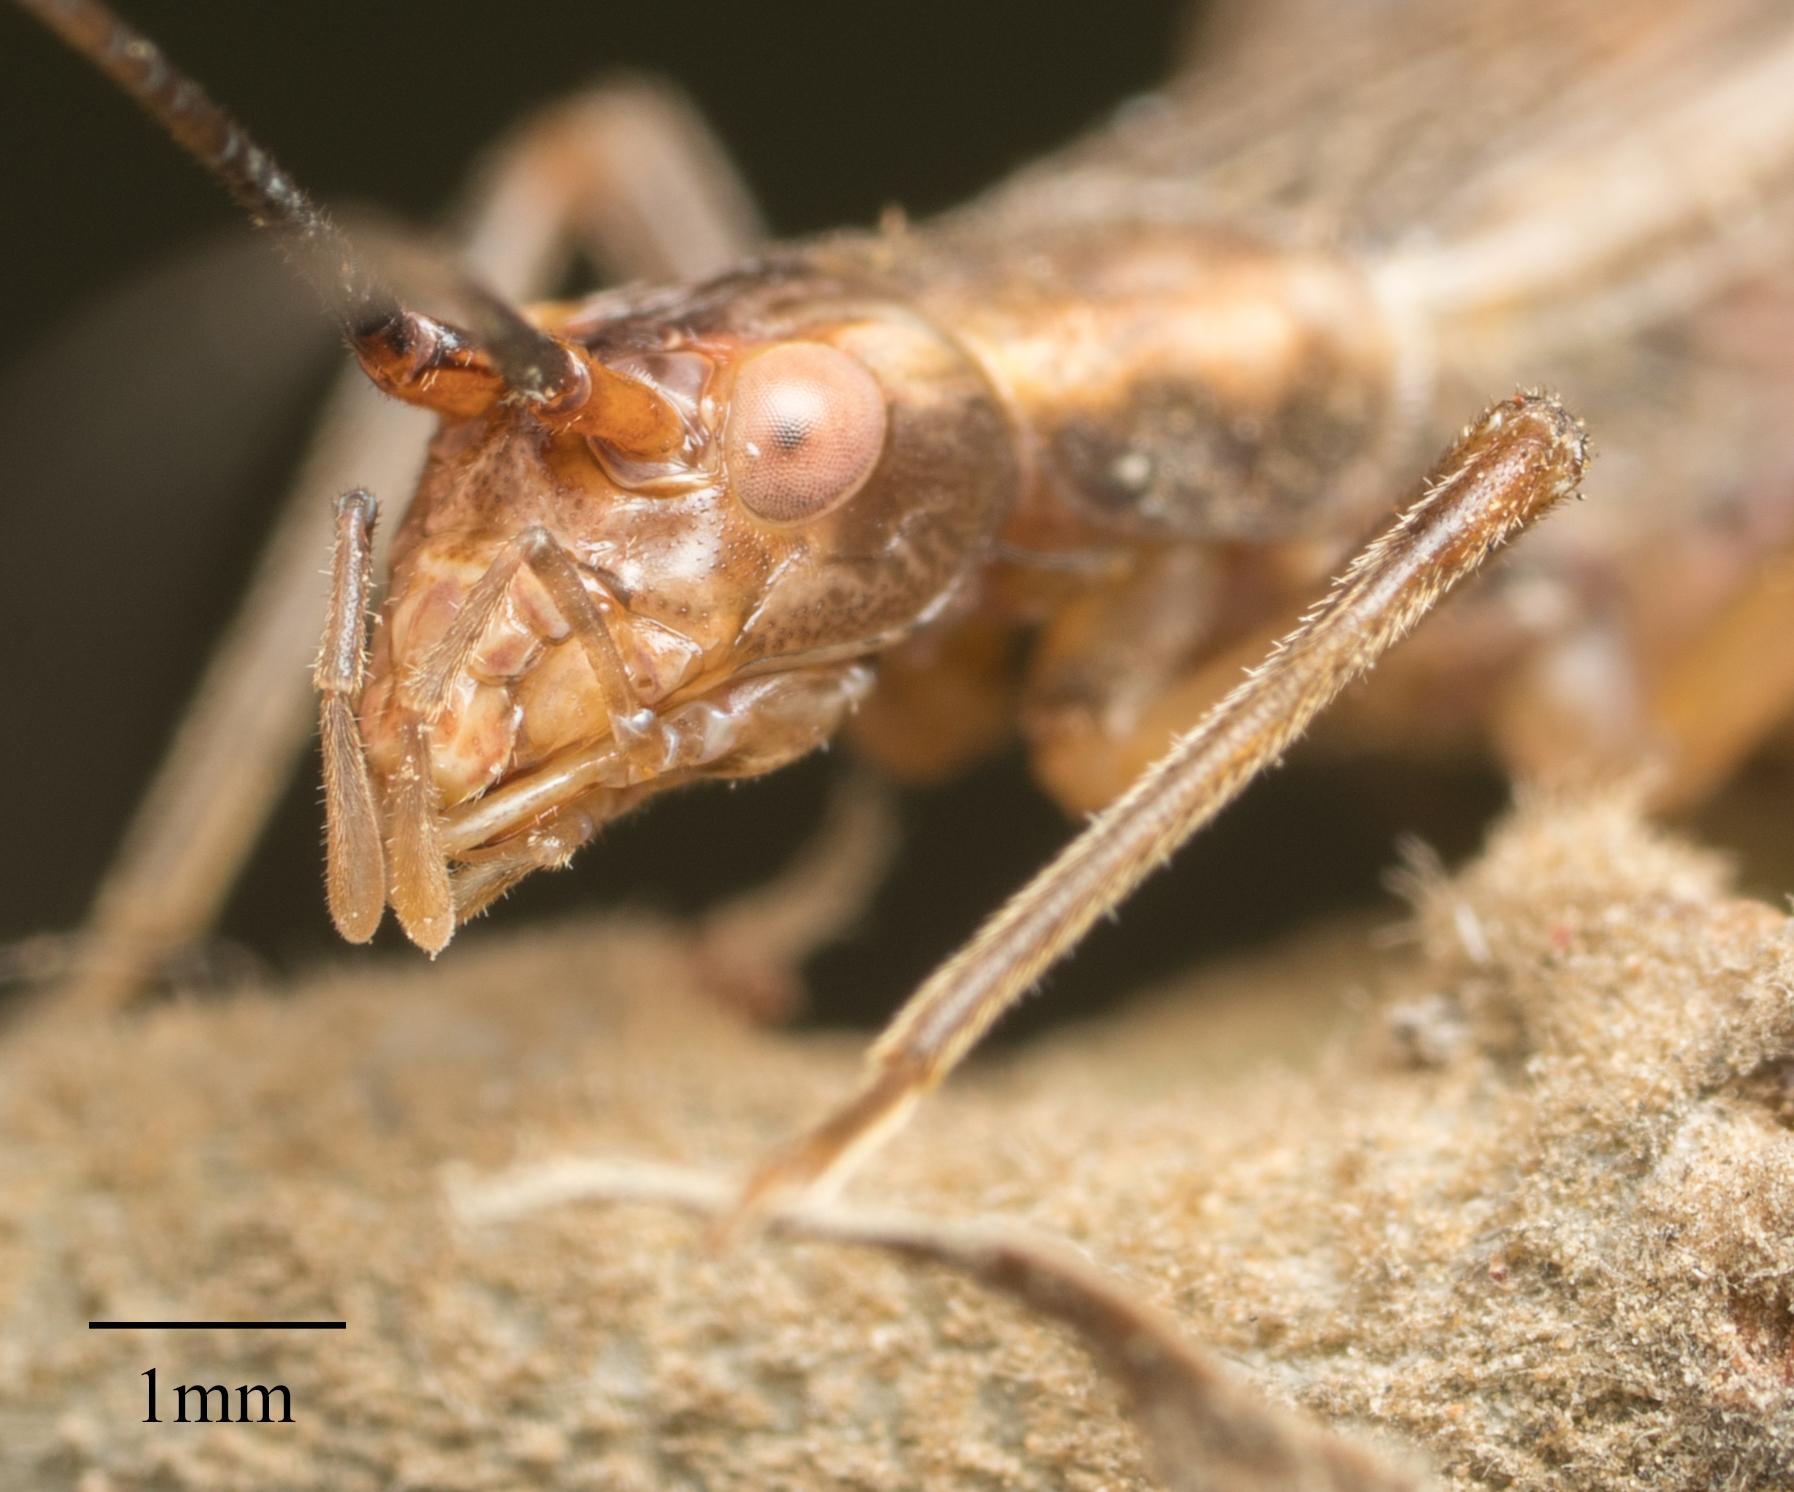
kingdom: Animalia
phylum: Arthropoda
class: Insecta
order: Orthoptera
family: Gryllidae
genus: Oecanthus
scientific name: Oecanthus californicus
